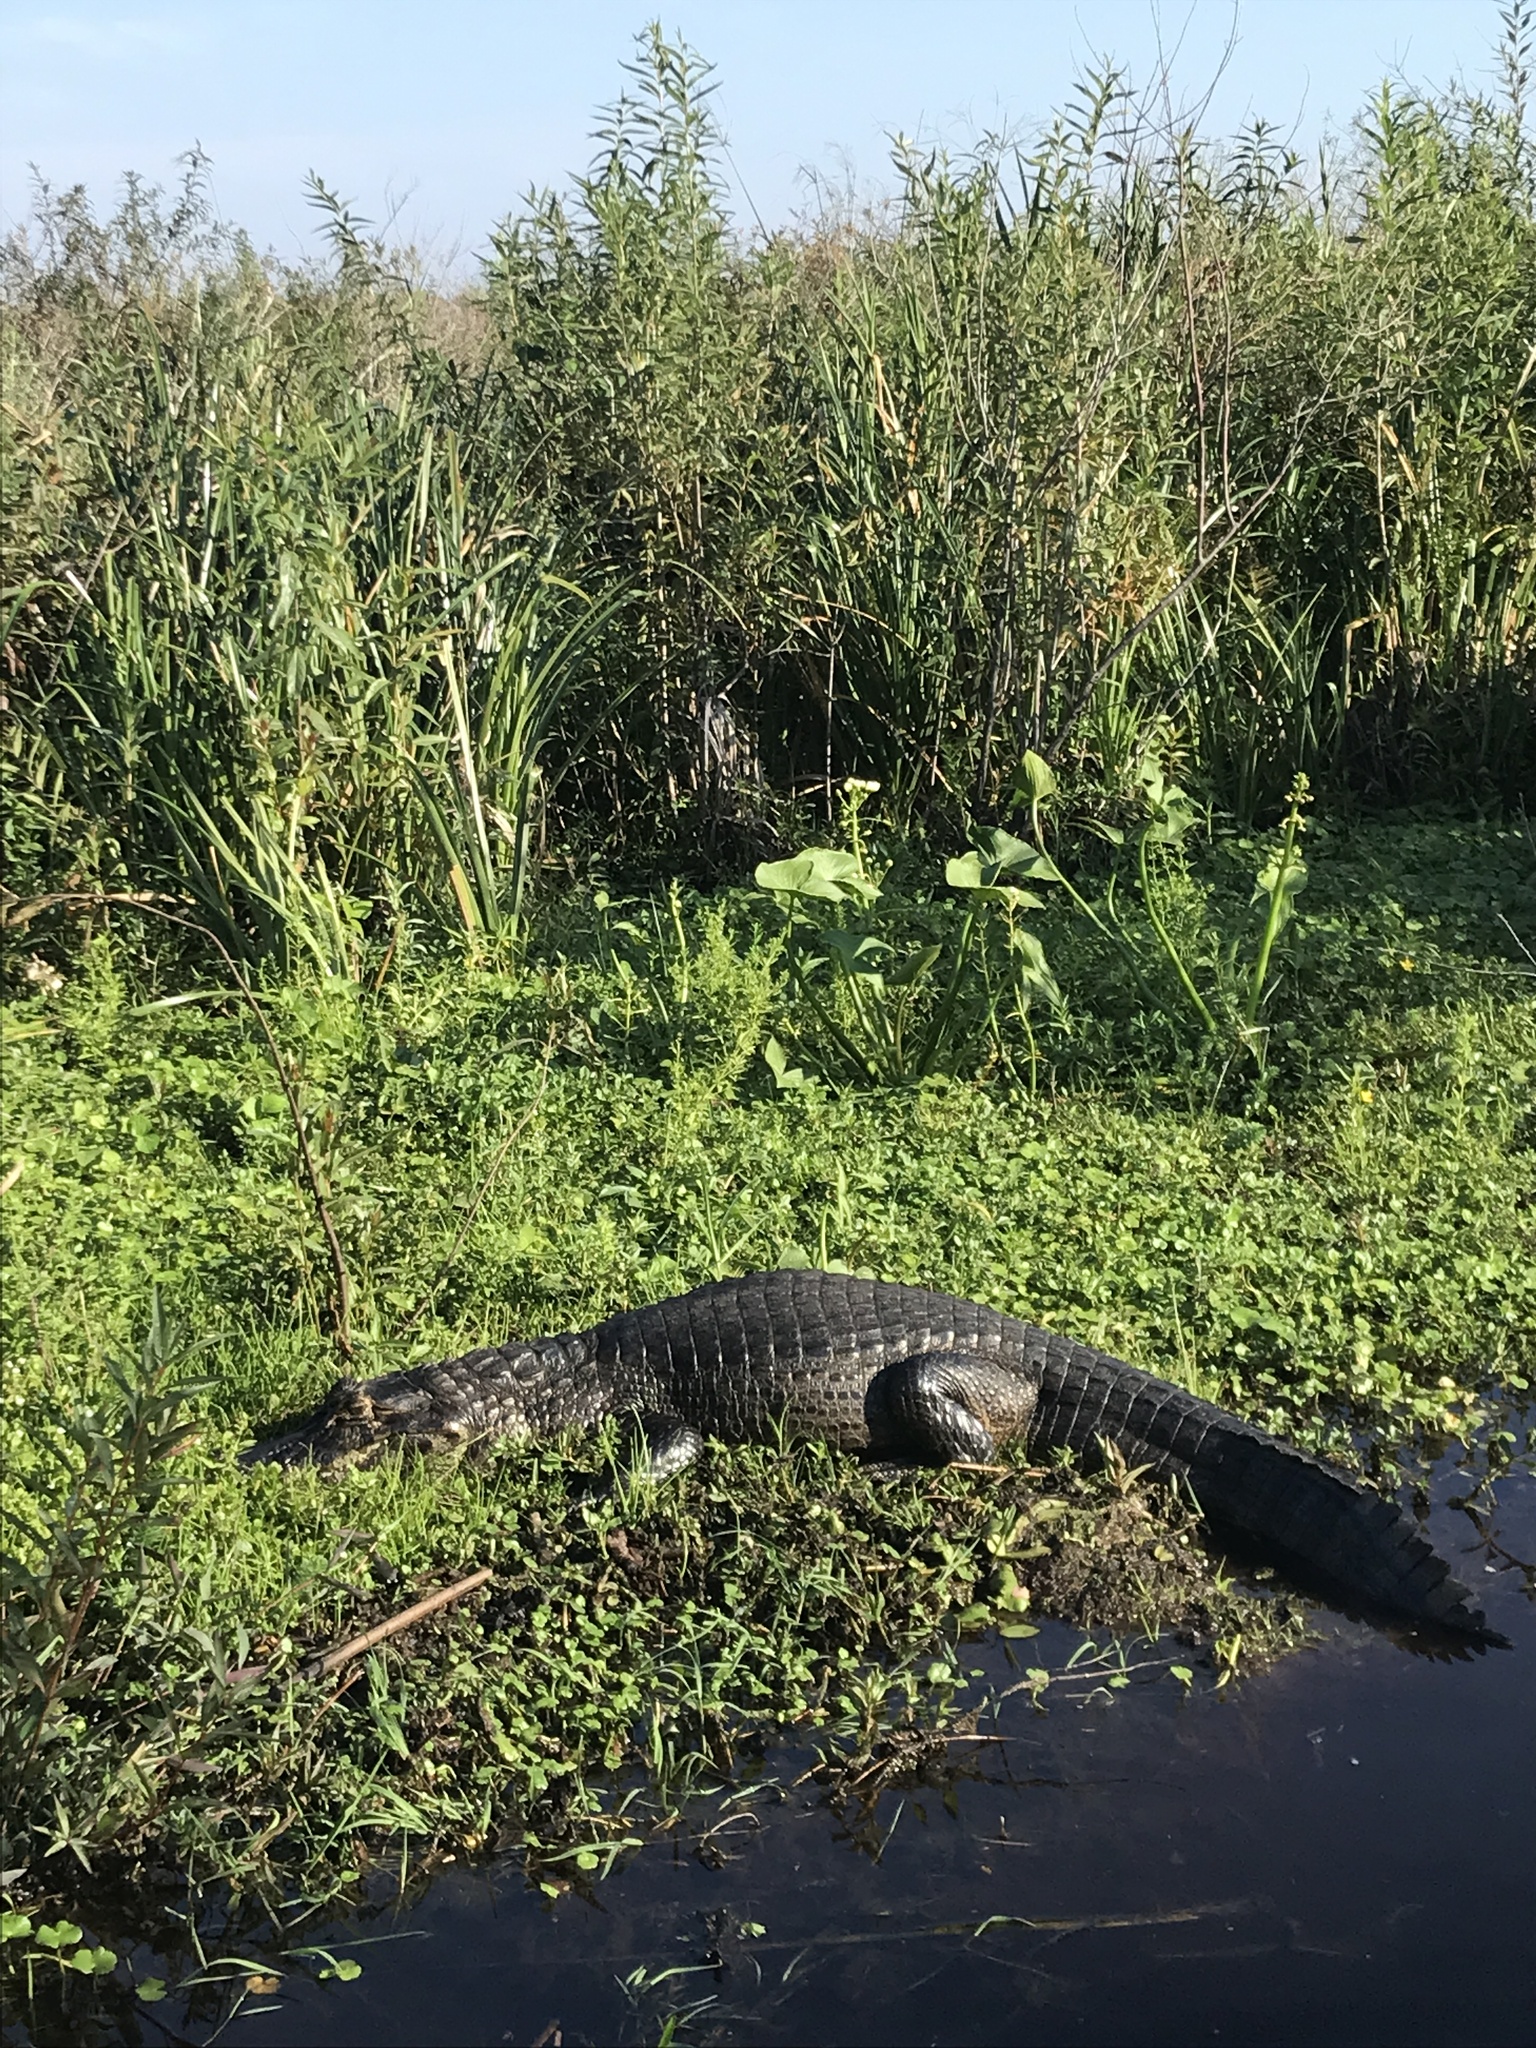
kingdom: Animalia
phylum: Chordata
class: Crocodylia
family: Alligatoridae
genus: Caiman
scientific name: Caiman yacare
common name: Yacare caiman
